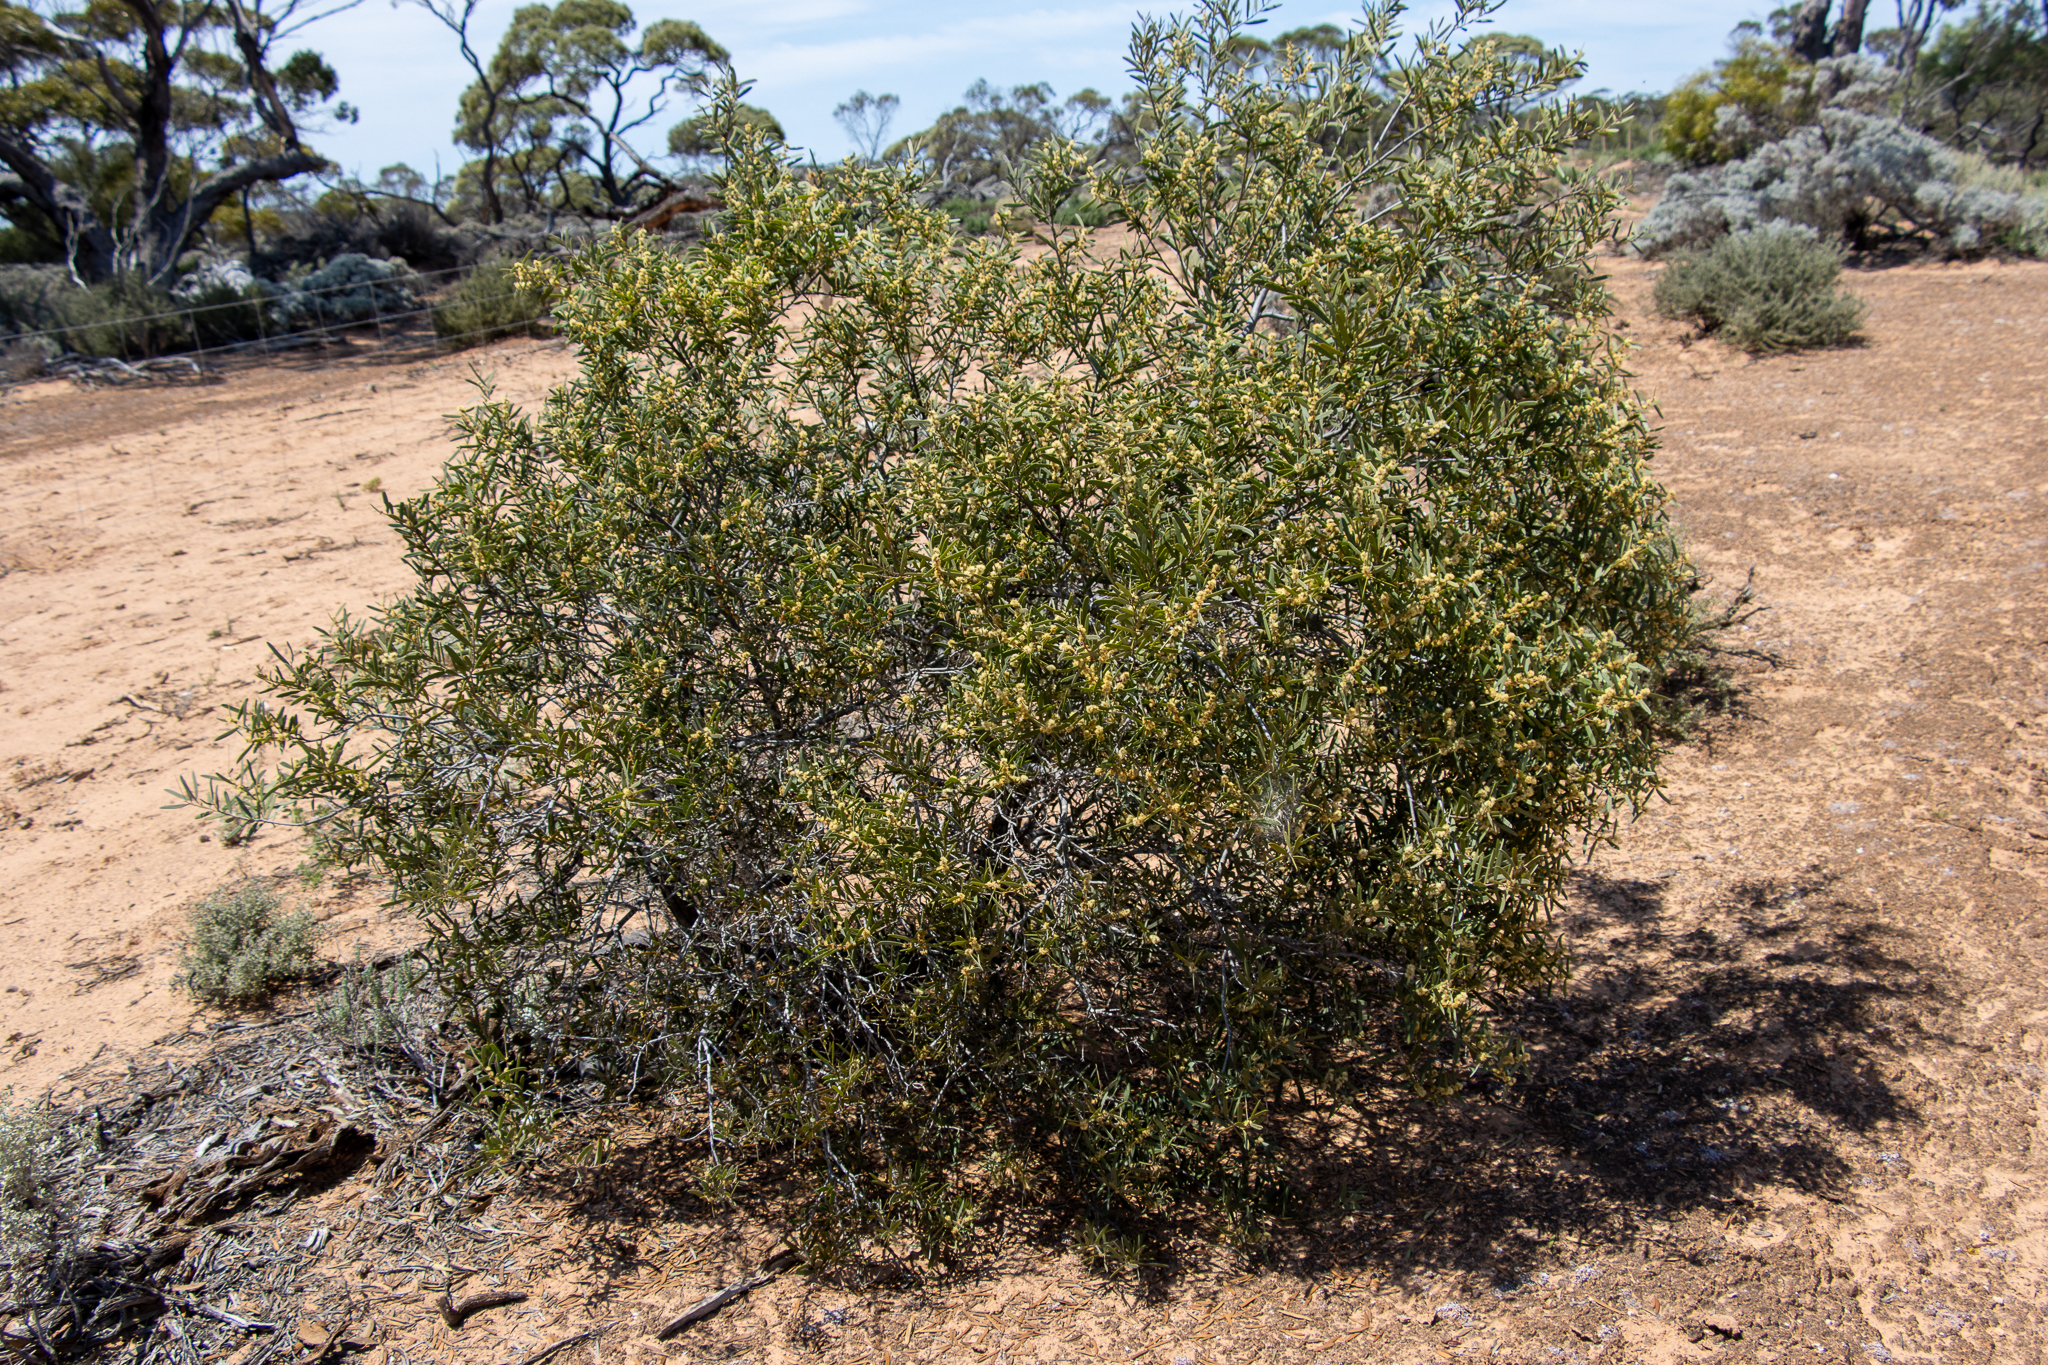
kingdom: Plantae
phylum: Tracheophyta
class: Magnoliopsida
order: Fabales
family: Fabaceae
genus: Acacia
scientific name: Acacia oswaldii
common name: Umbrella wattle
